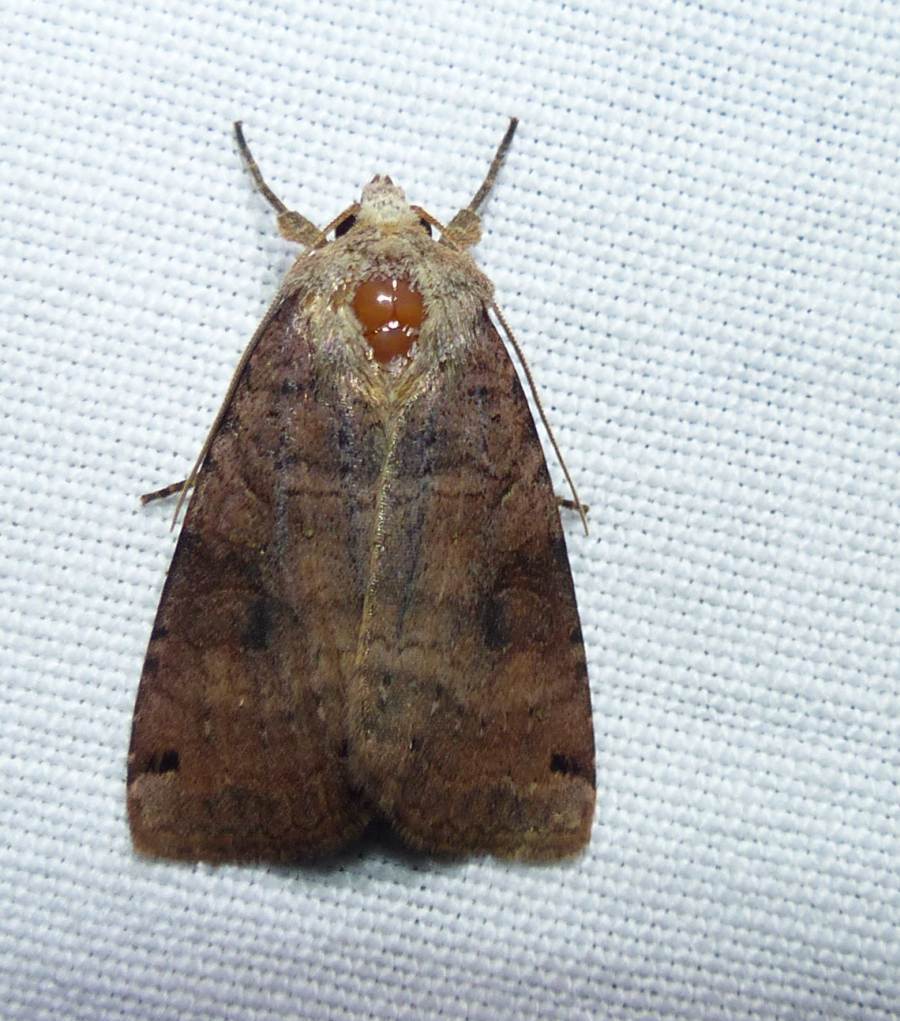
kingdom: Animalia
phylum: Arthropoda
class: Insecta
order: Lepidoptera
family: Noctuidae
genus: Xestia
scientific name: Xestia smithii
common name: Smith's dart
